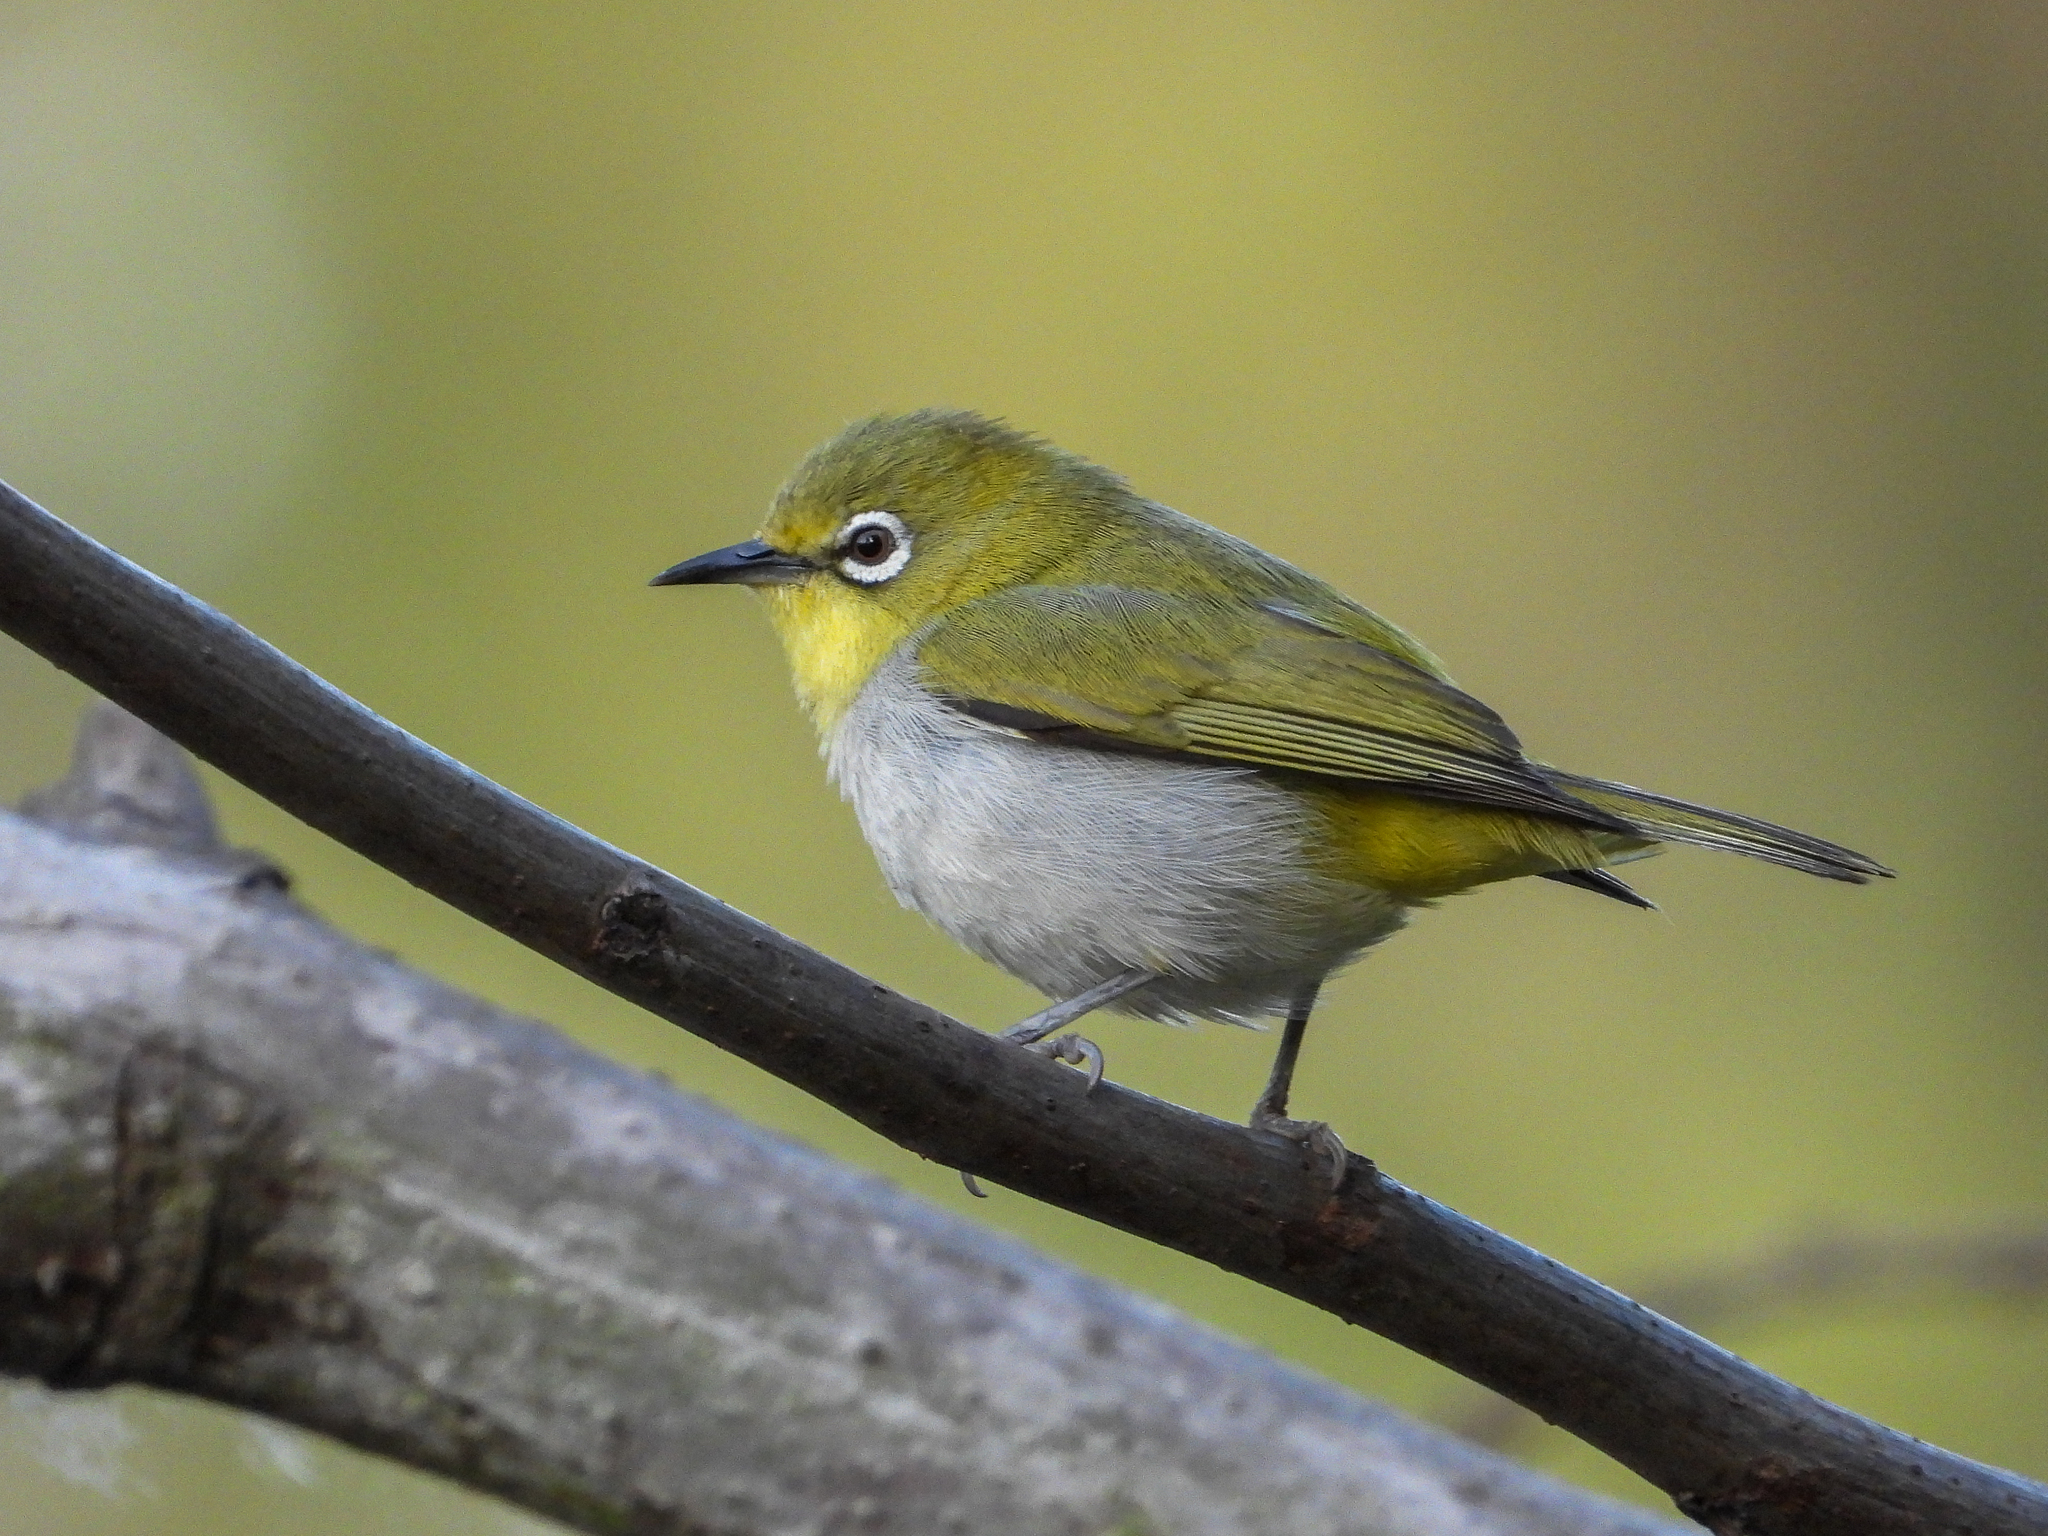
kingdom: Animalia
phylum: Chordata
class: Aves
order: Passeriformes
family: Zosteropidae
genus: Zosterops
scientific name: Zosterops simplex
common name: Swinhoe's white-eye
